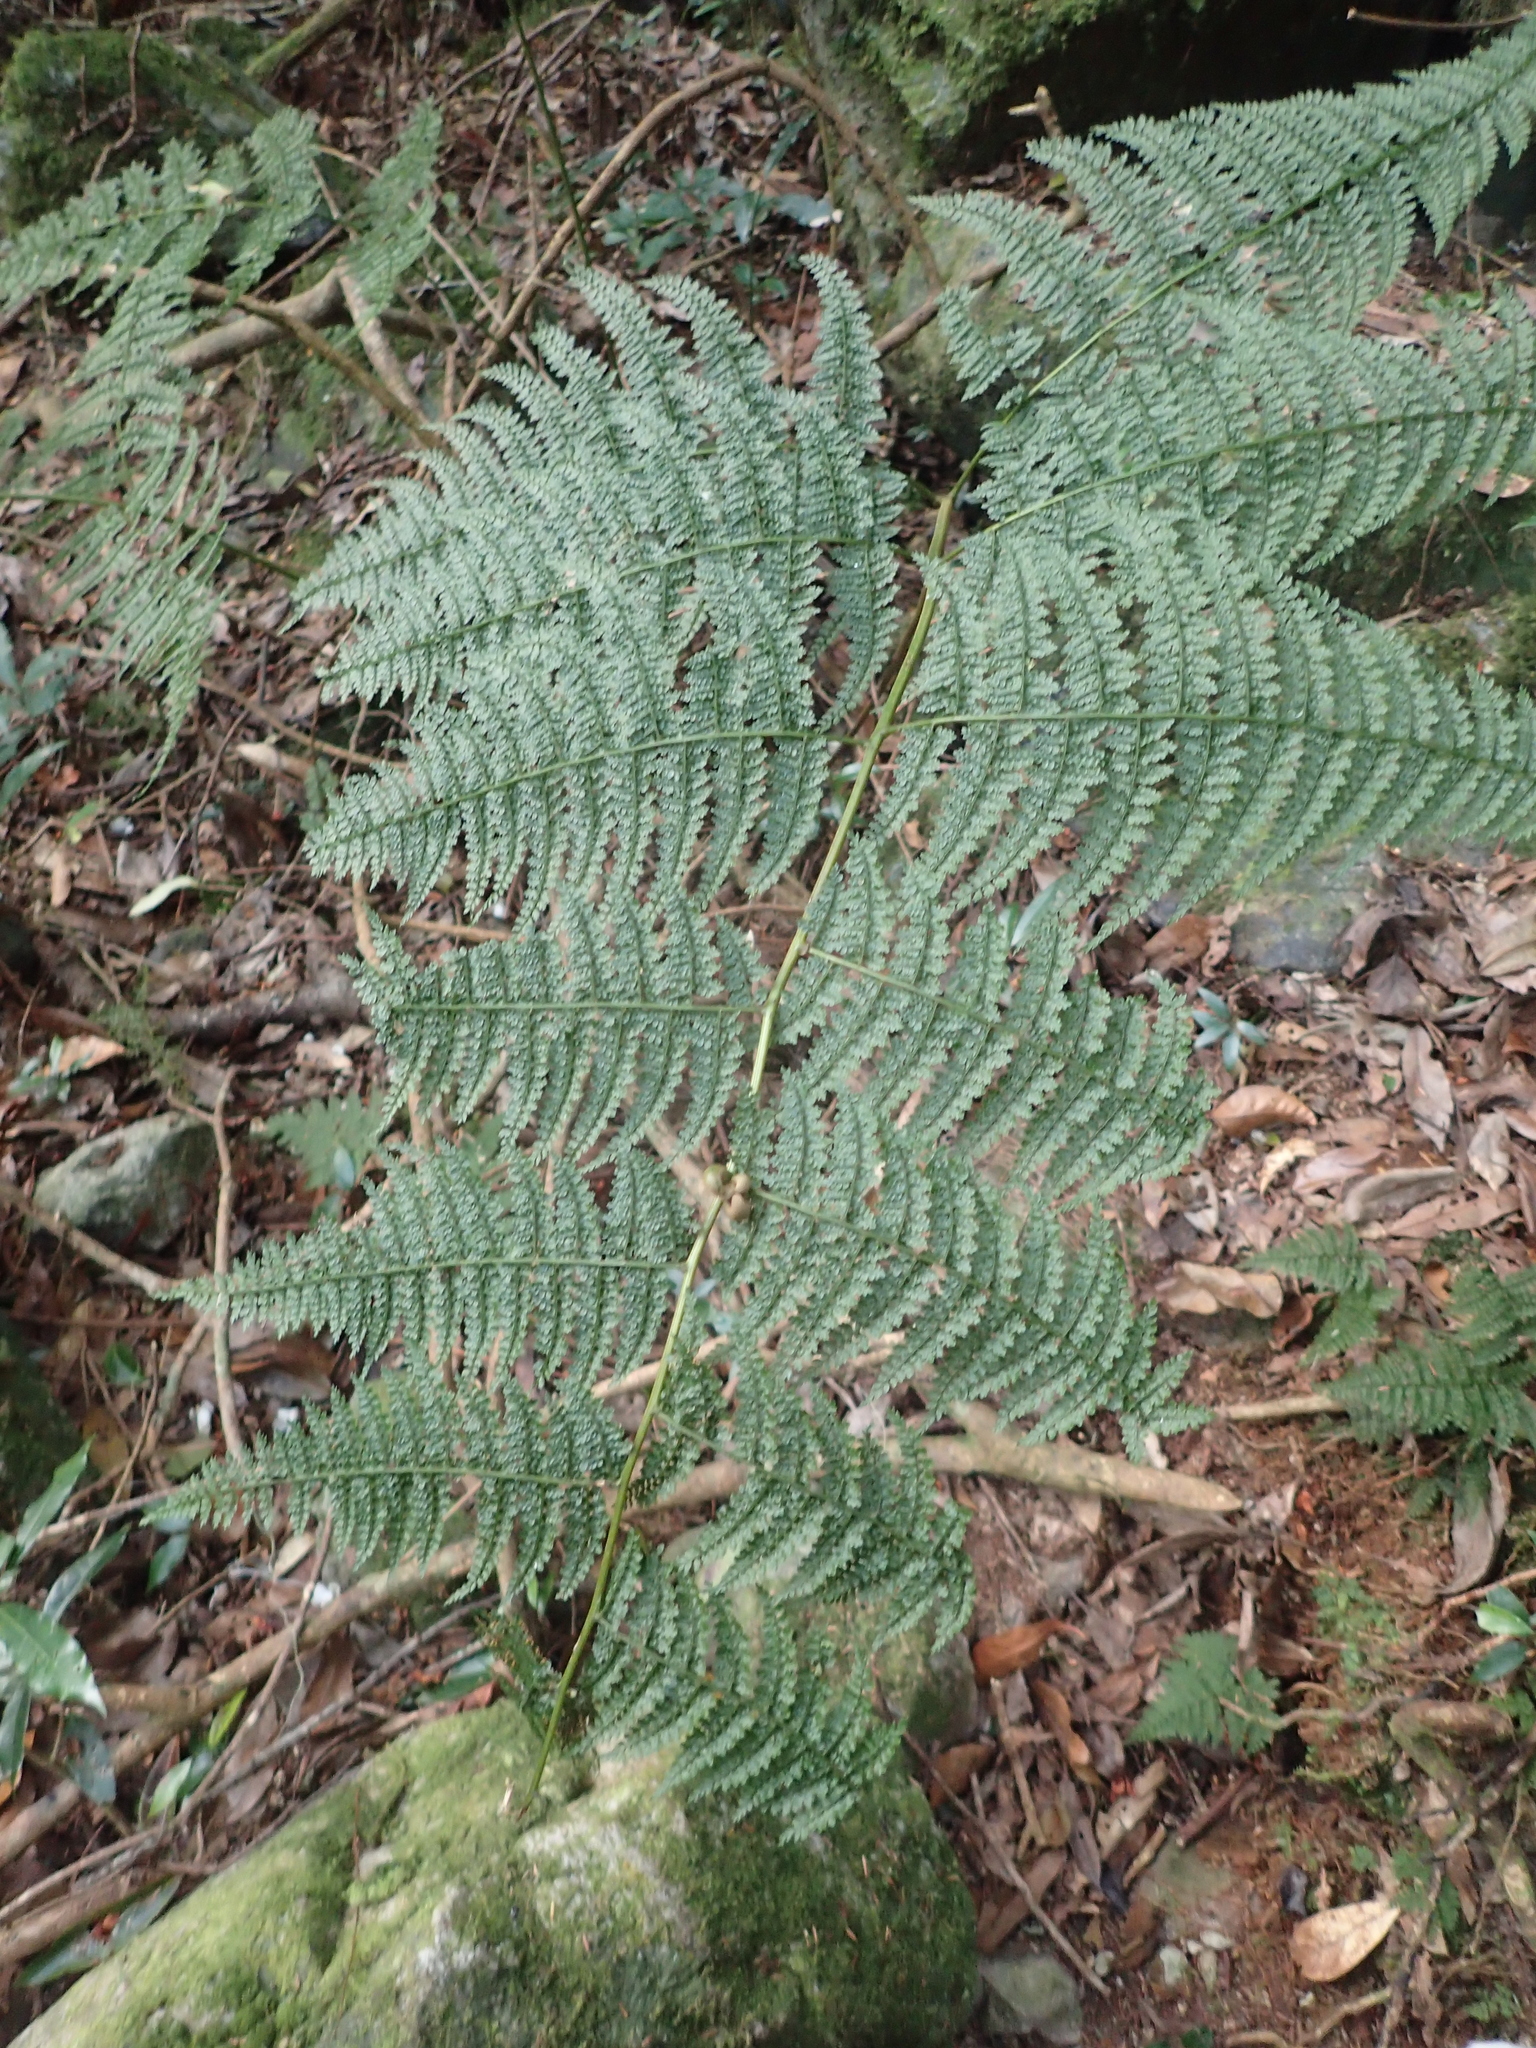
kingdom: Plantae
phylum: Tracheophyta
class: Polypodiopsida
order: Polypodiales
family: Dennstaedtiaceae
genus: Monachosorum
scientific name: Monachosorum henryi
